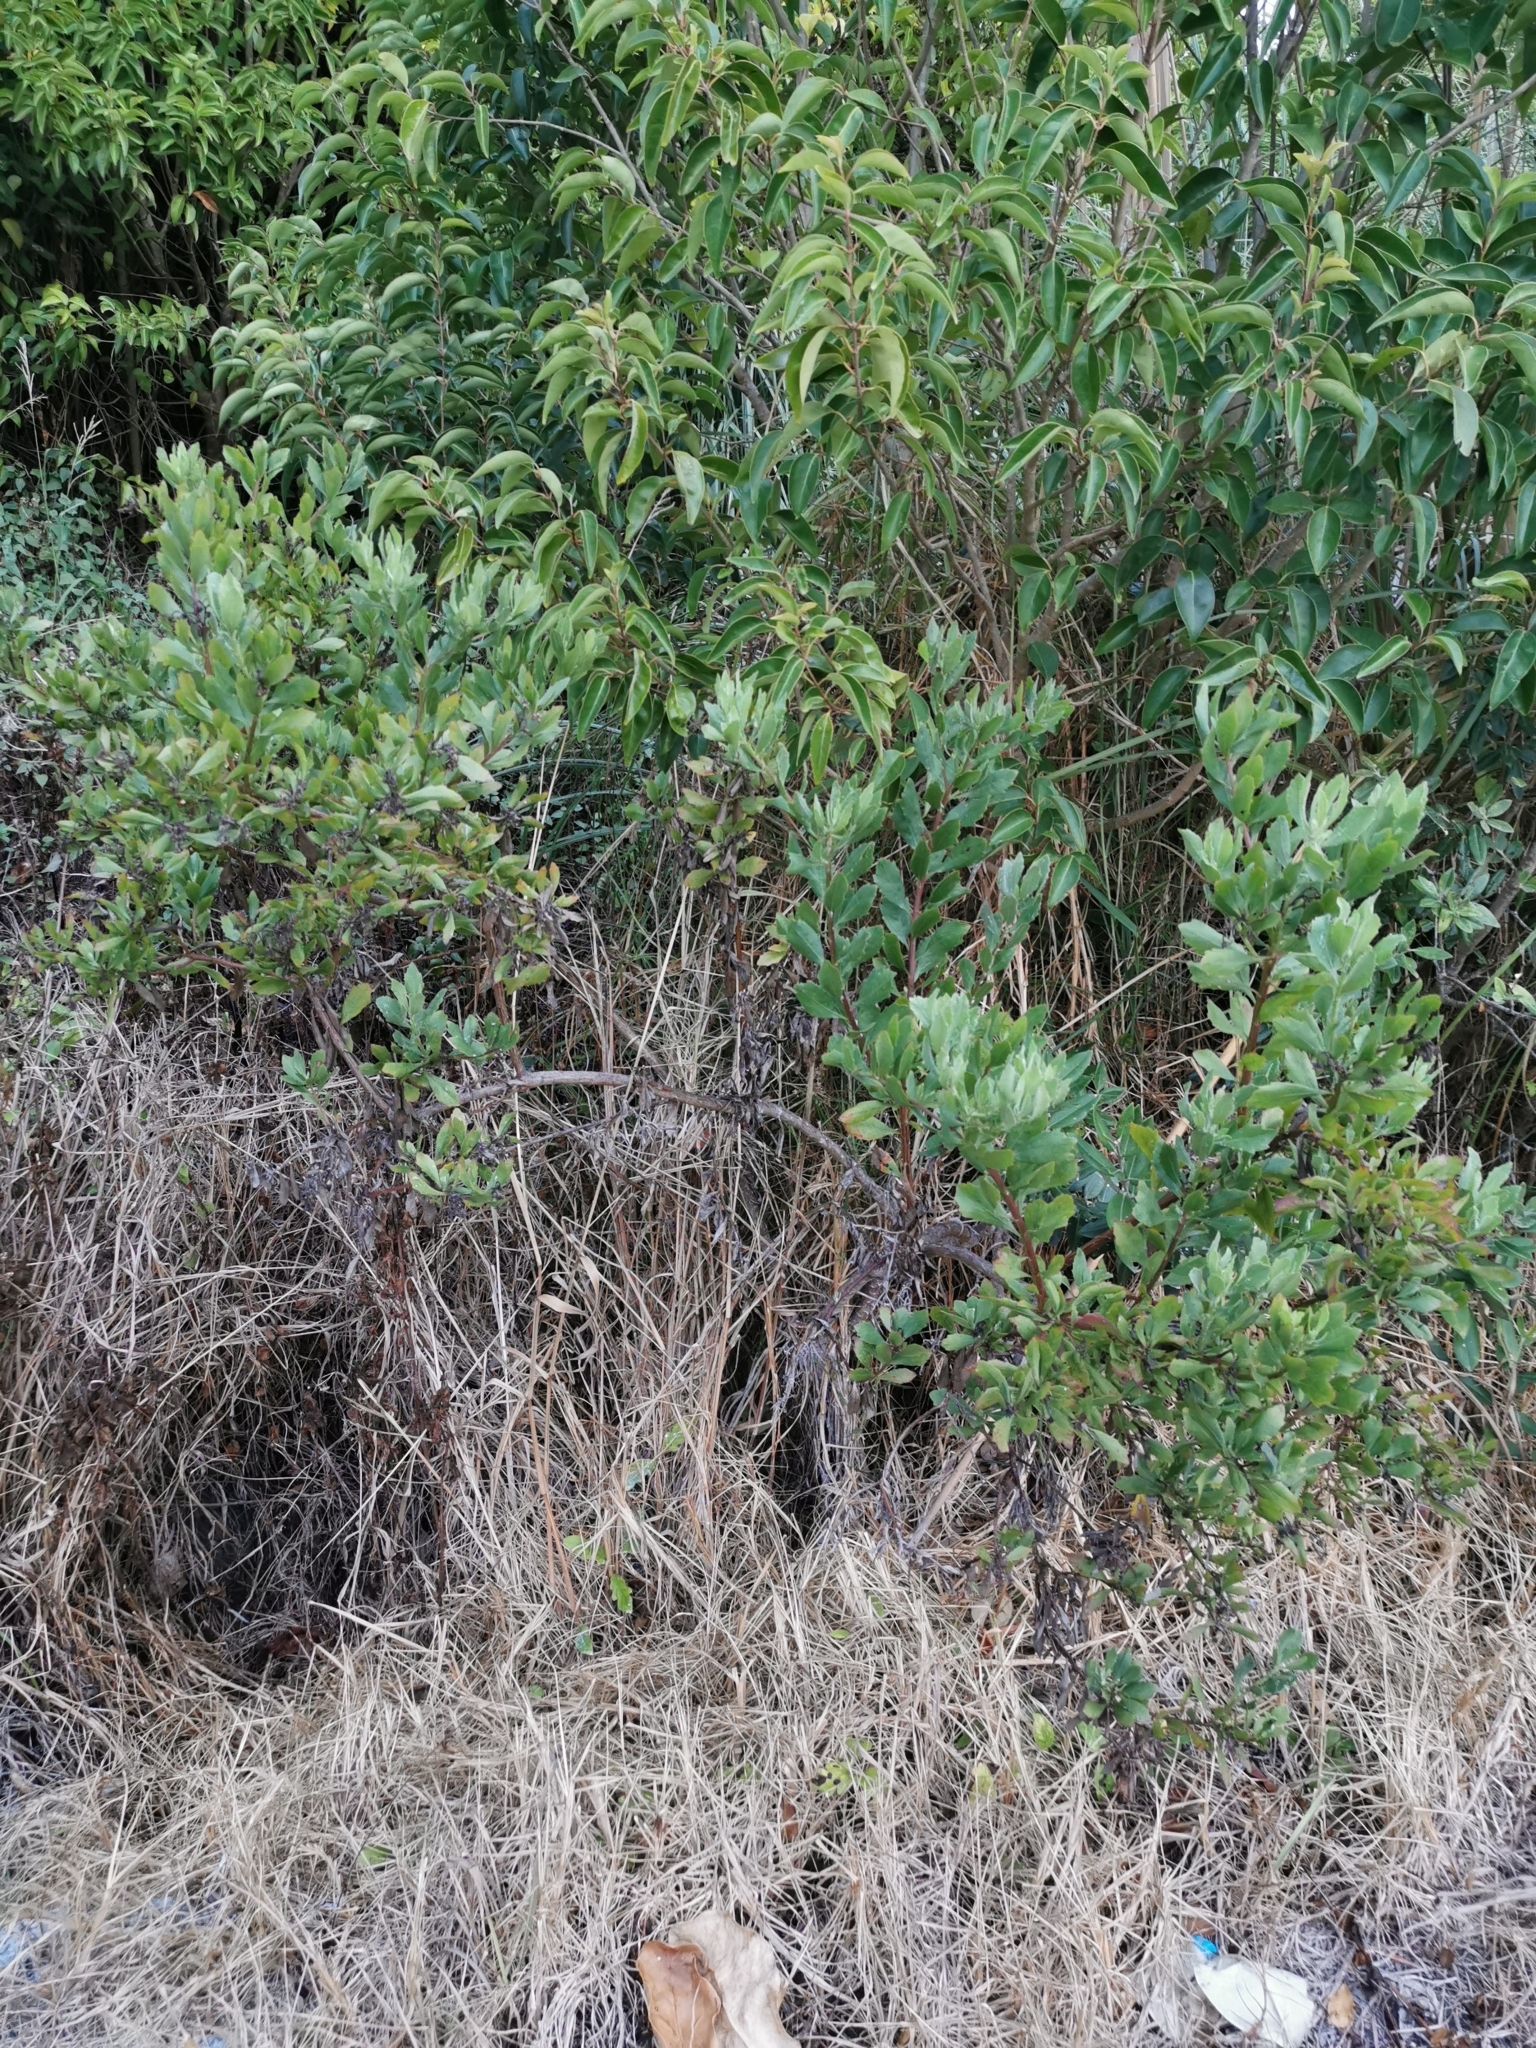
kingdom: Plantae
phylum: Tracheophyta
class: Magnoliopsida
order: Asterales
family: Asteraceae
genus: Osteospermum
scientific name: Osteospermum moniliferum
